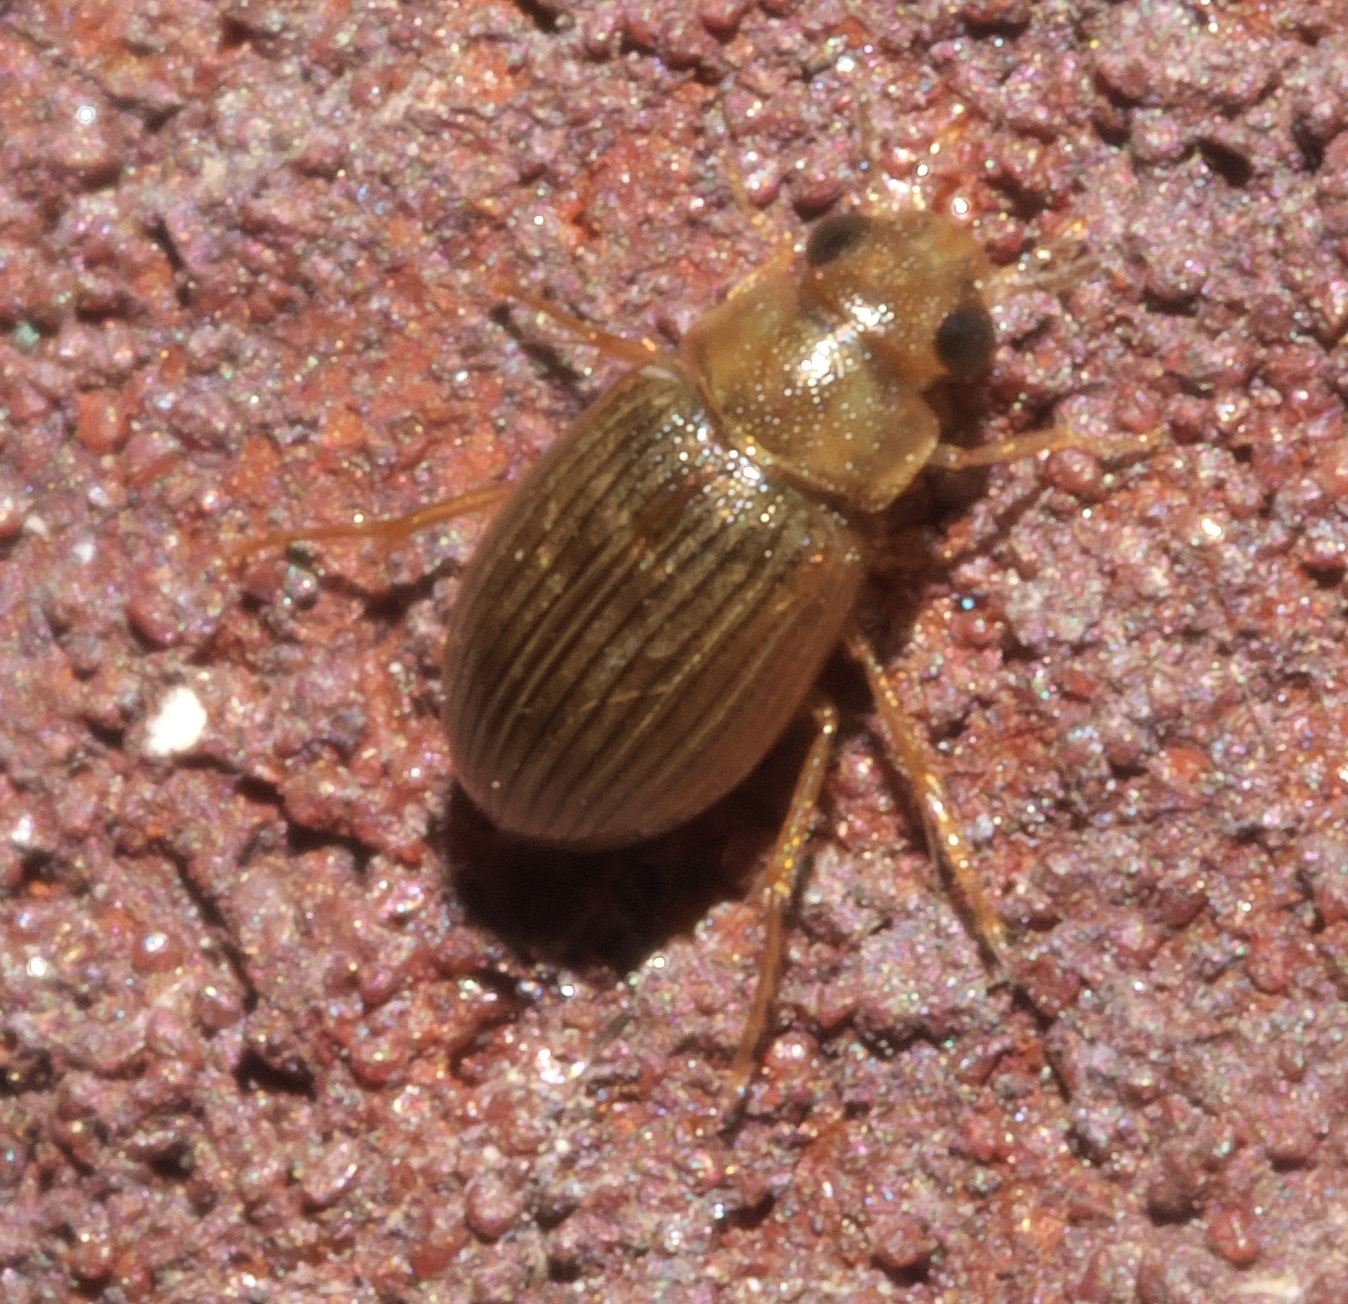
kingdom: Animalia
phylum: Arthropoda
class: Insecta
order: Coleoptera
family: Hydrophilidae
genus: Berosus
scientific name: Berosus exiguus
